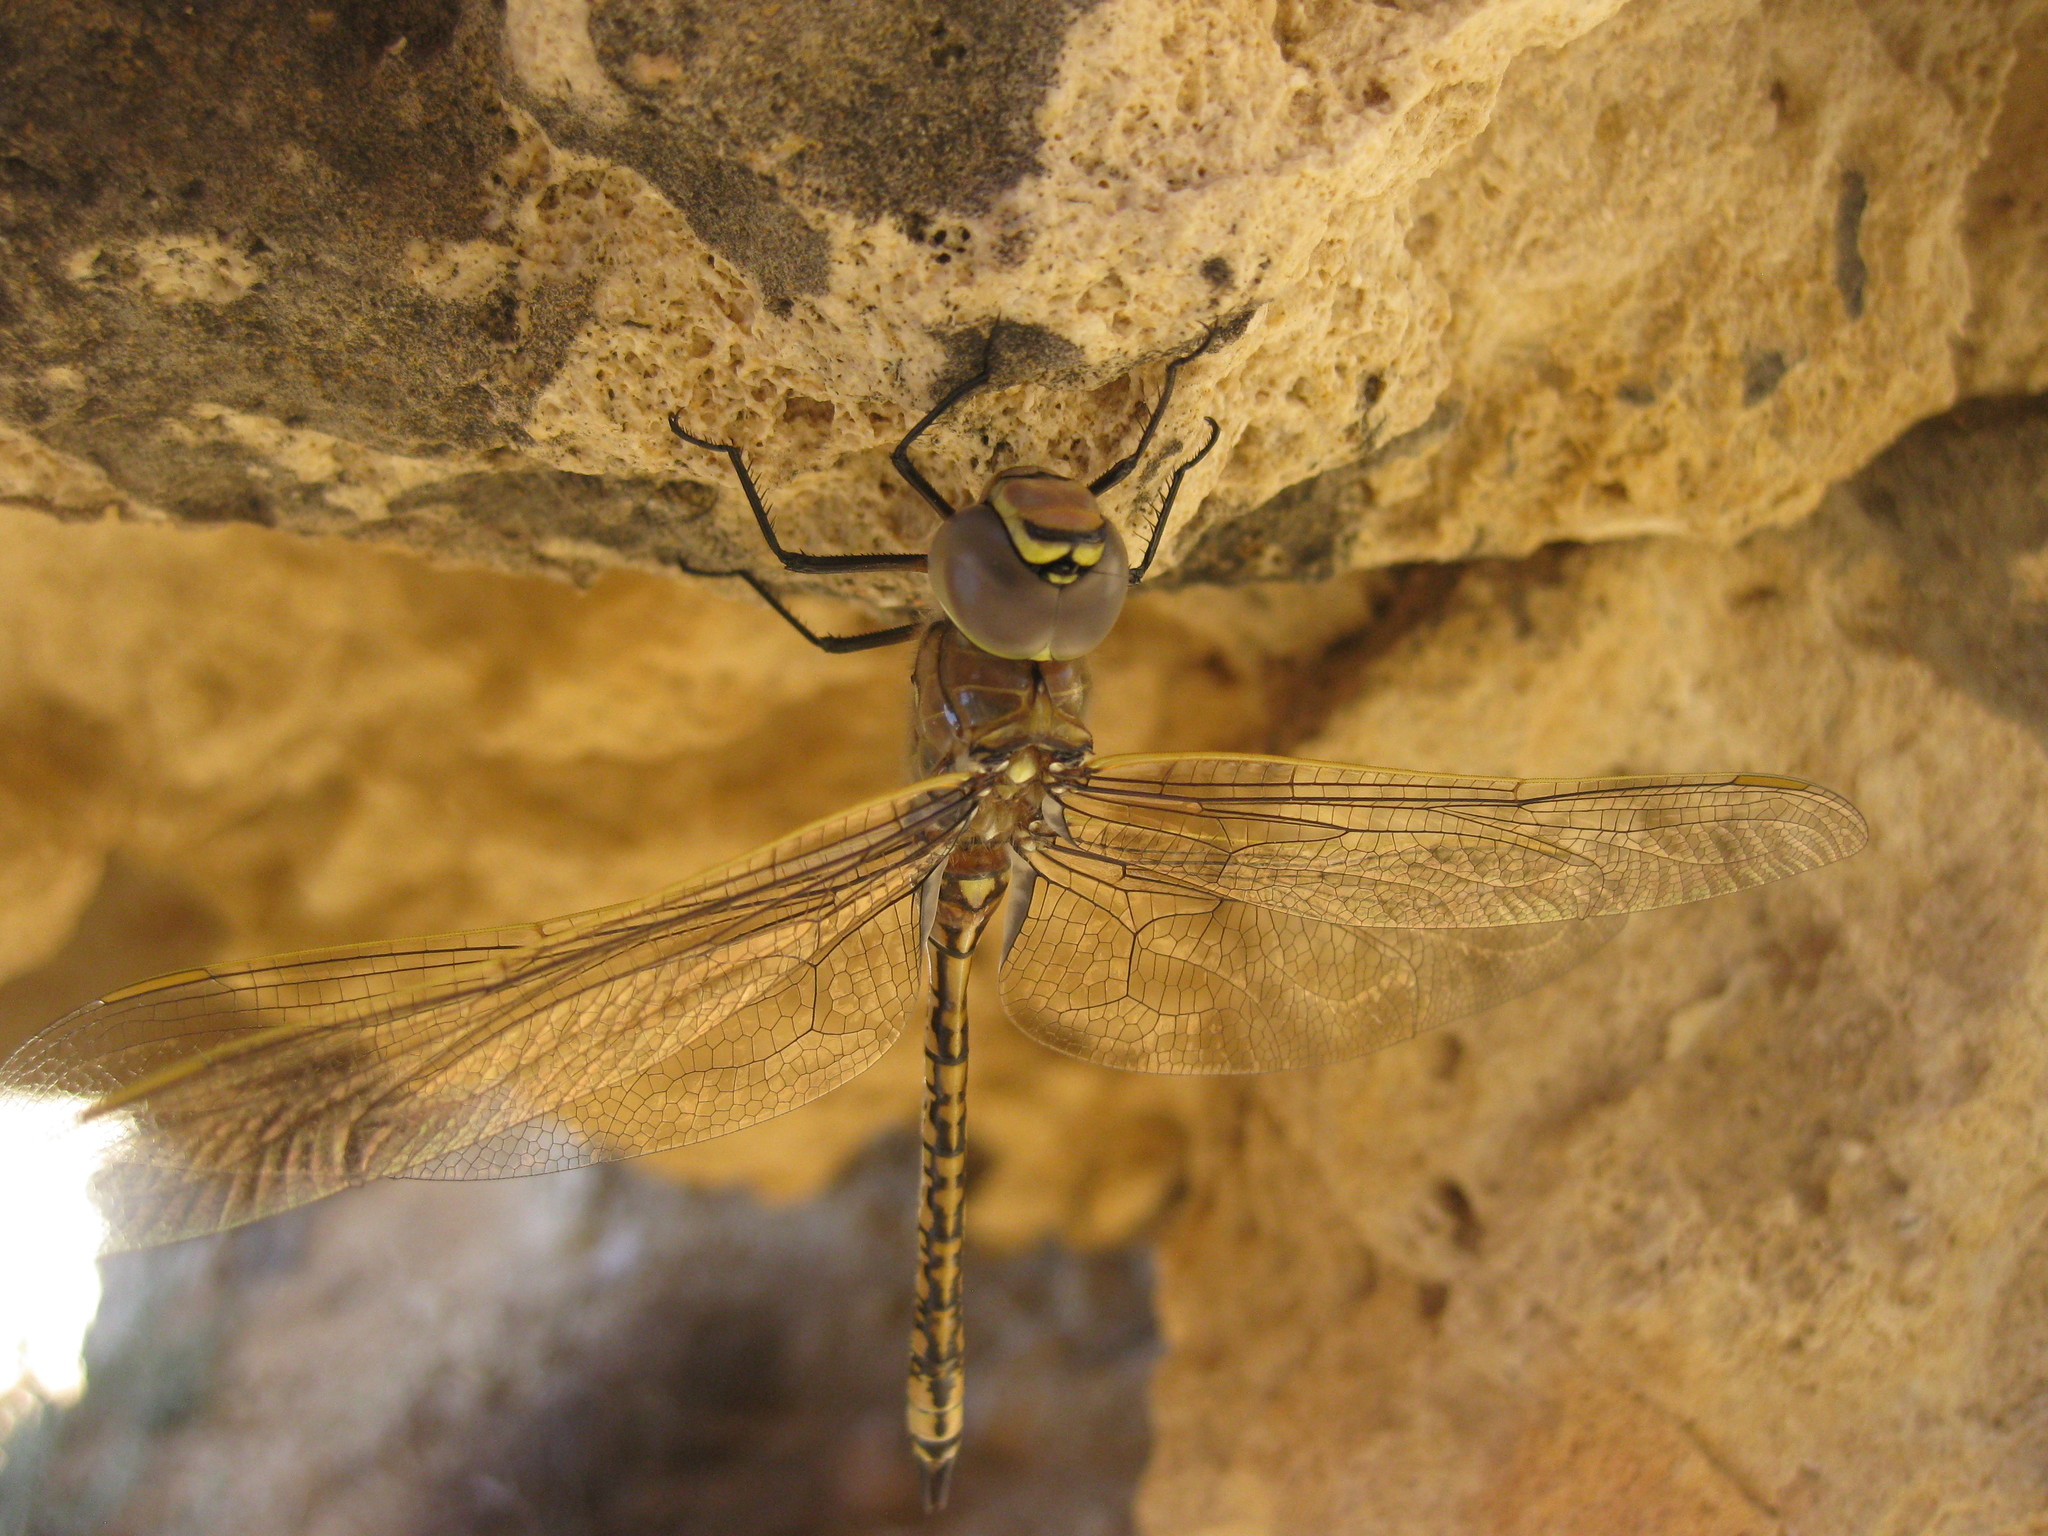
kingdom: Animalia
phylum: Arthropoda
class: Insecta
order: Odonata
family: Aeshnidae
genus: Anax
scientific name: Anax papuensis
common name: Australian emperor
